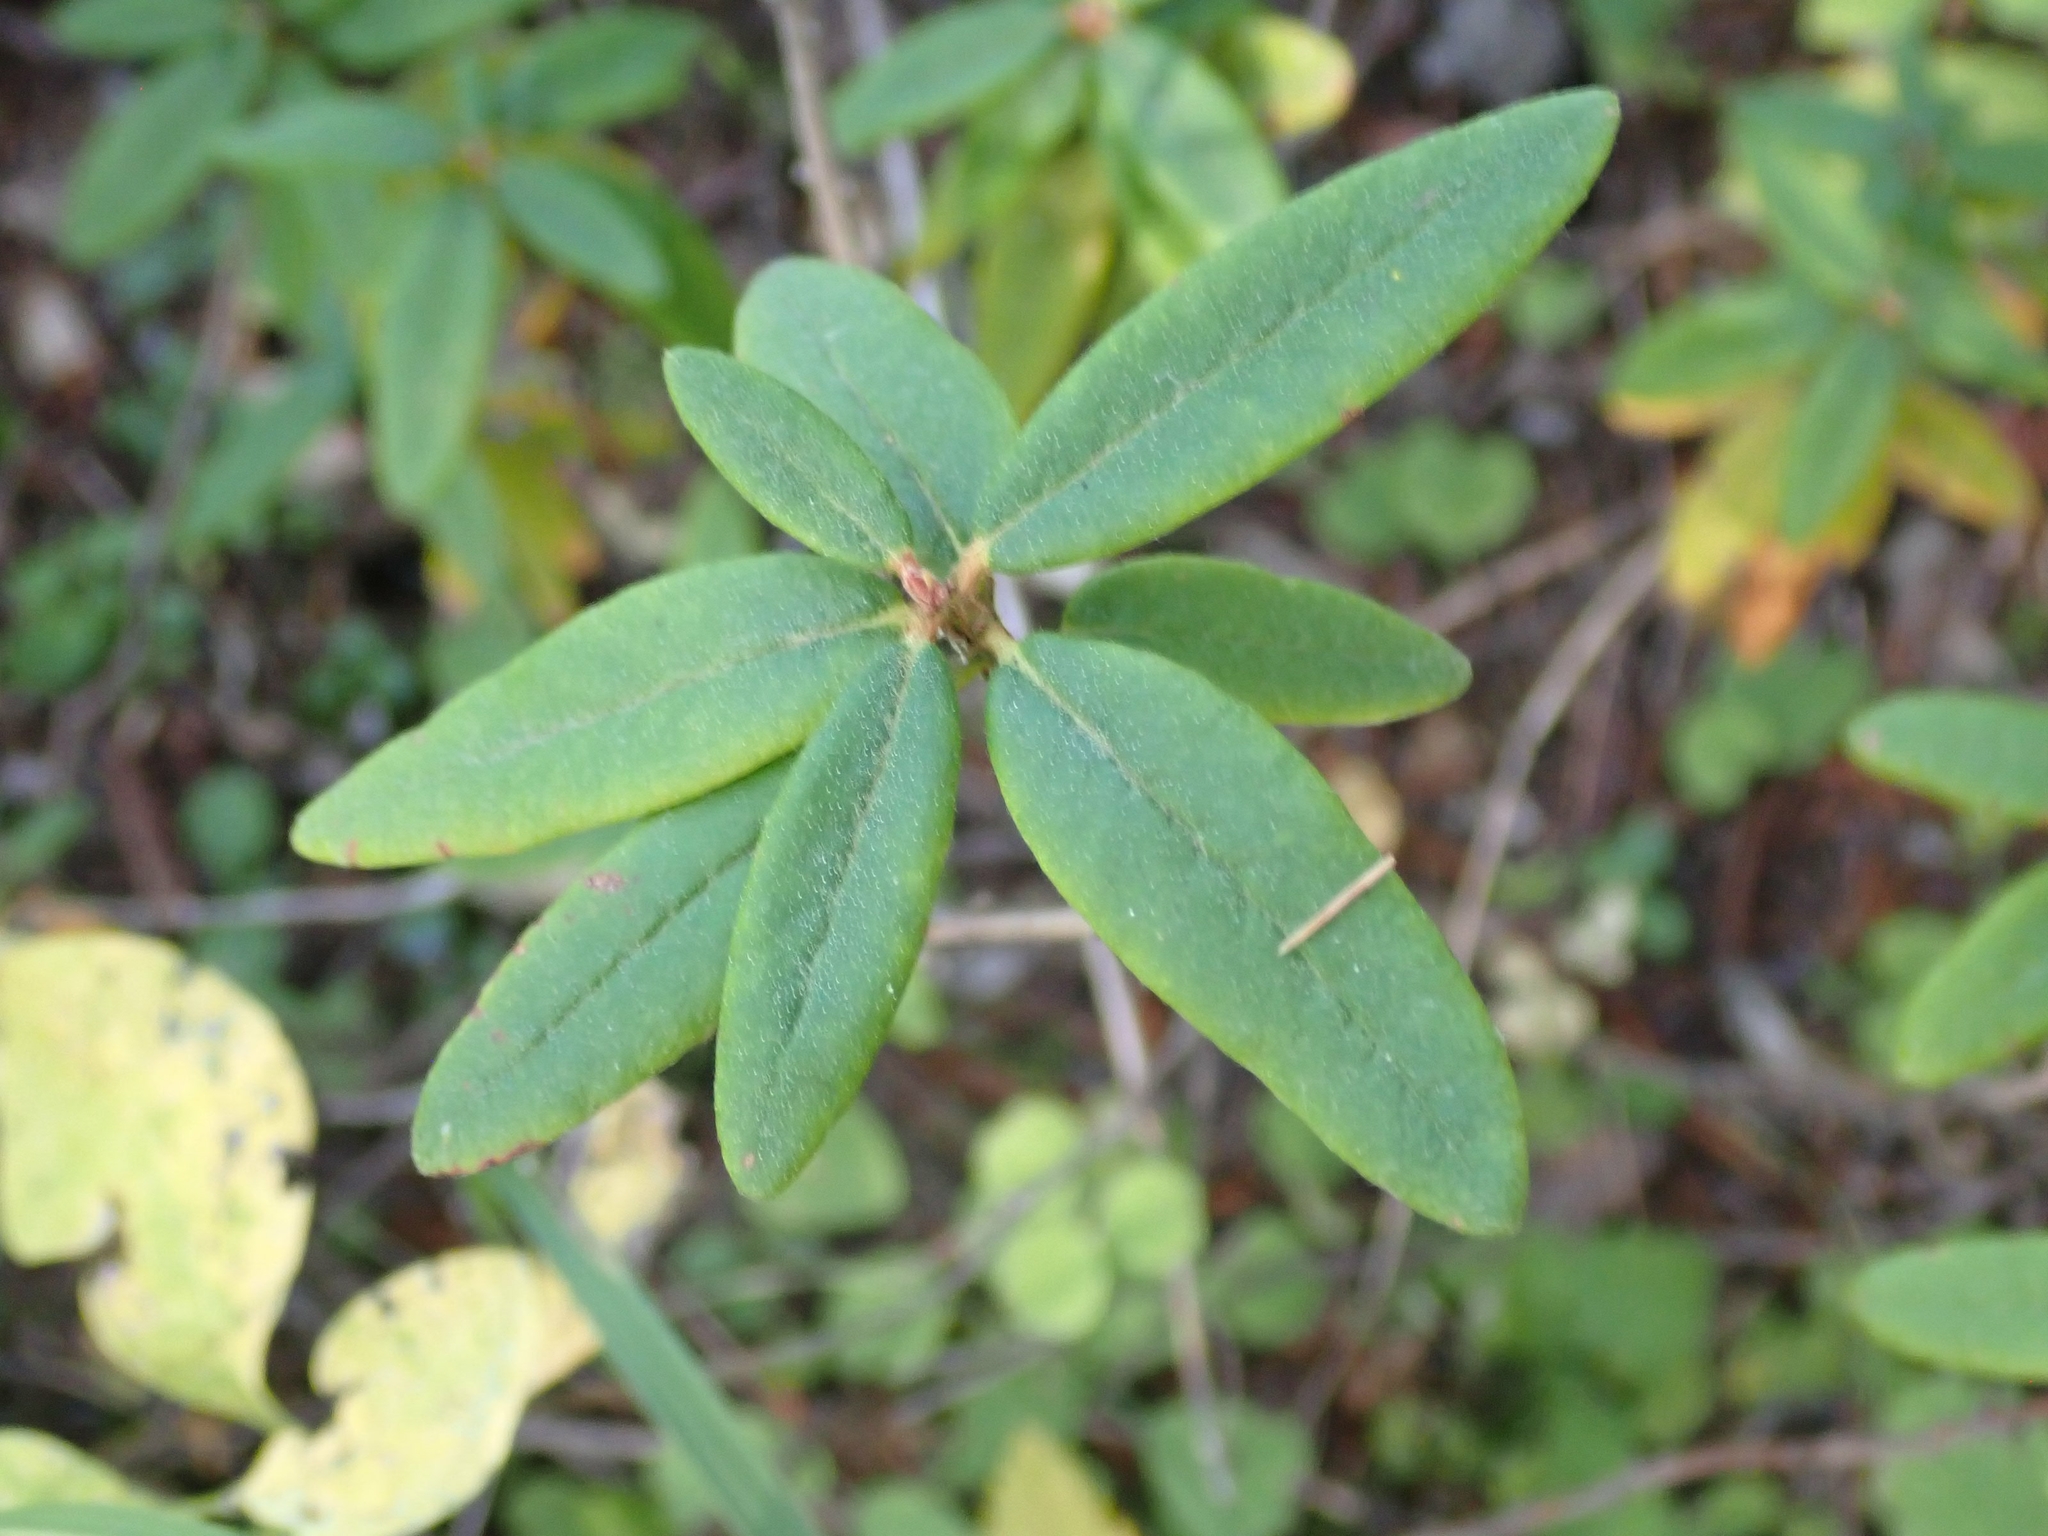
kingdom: Plantae
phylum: Tracheophyta
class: Magnoliopsida
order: Ericales
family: Ericaceae
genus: Rhododendron
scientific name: Rhododendron groenlandicum
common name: Bog labrador tea
